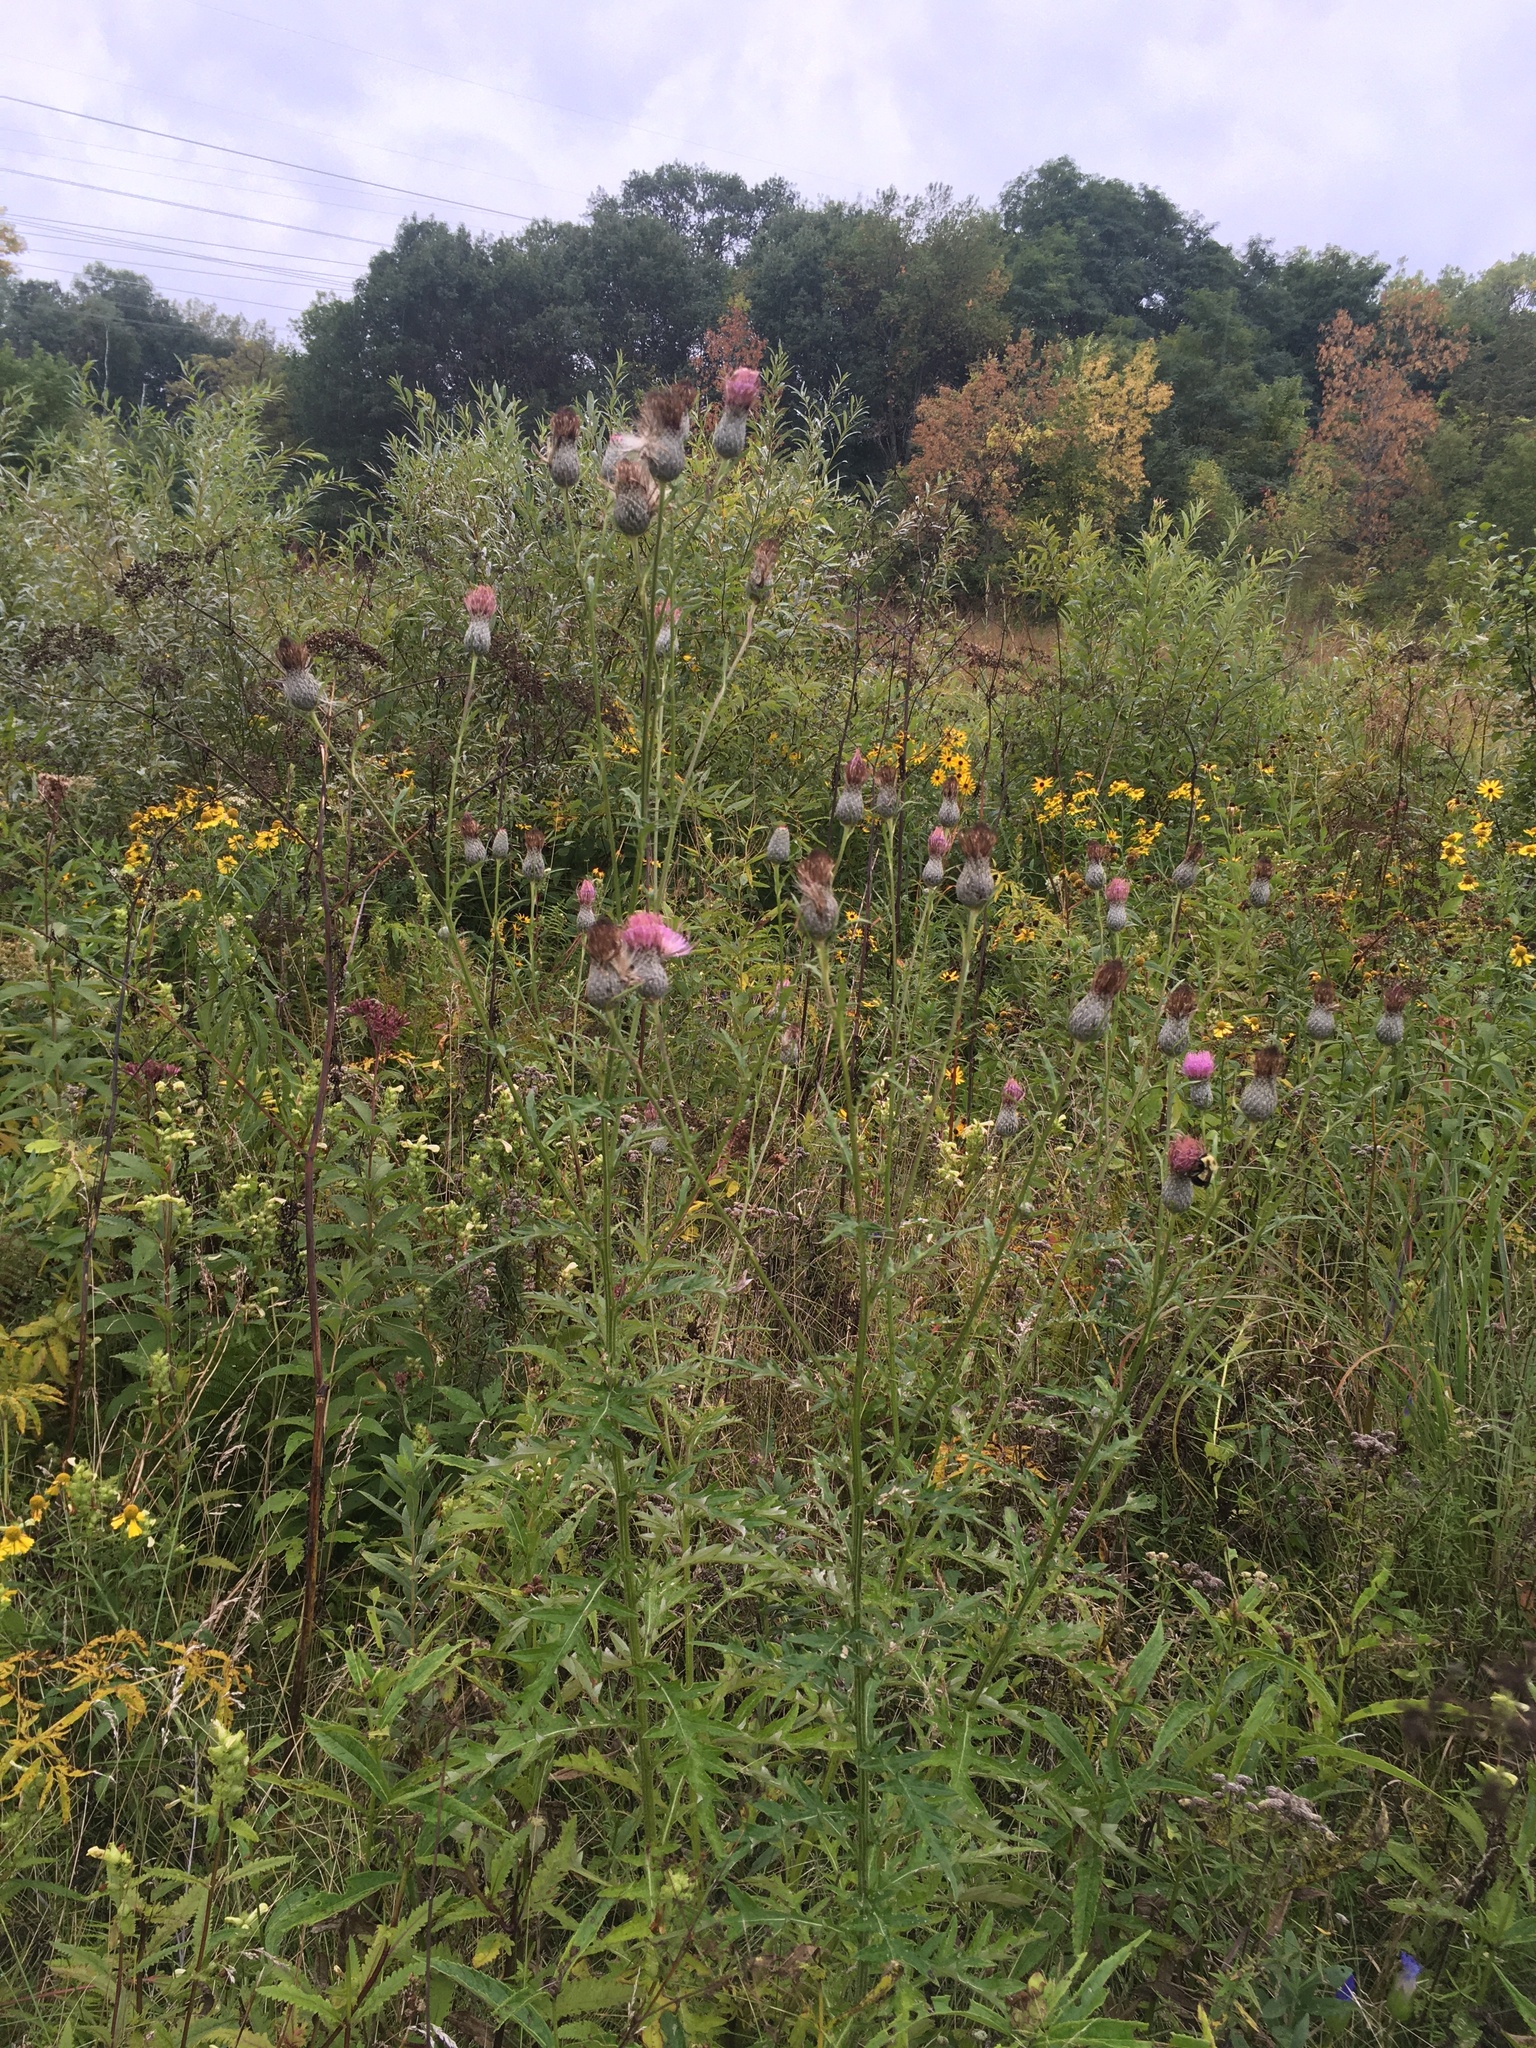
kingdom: Plantae
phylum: Tracheophyta
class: Magnoliopsida
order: Asterales
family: Asteraceae
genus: Cirsium
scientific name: Cirsium muticum
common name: Dunce-nettle
